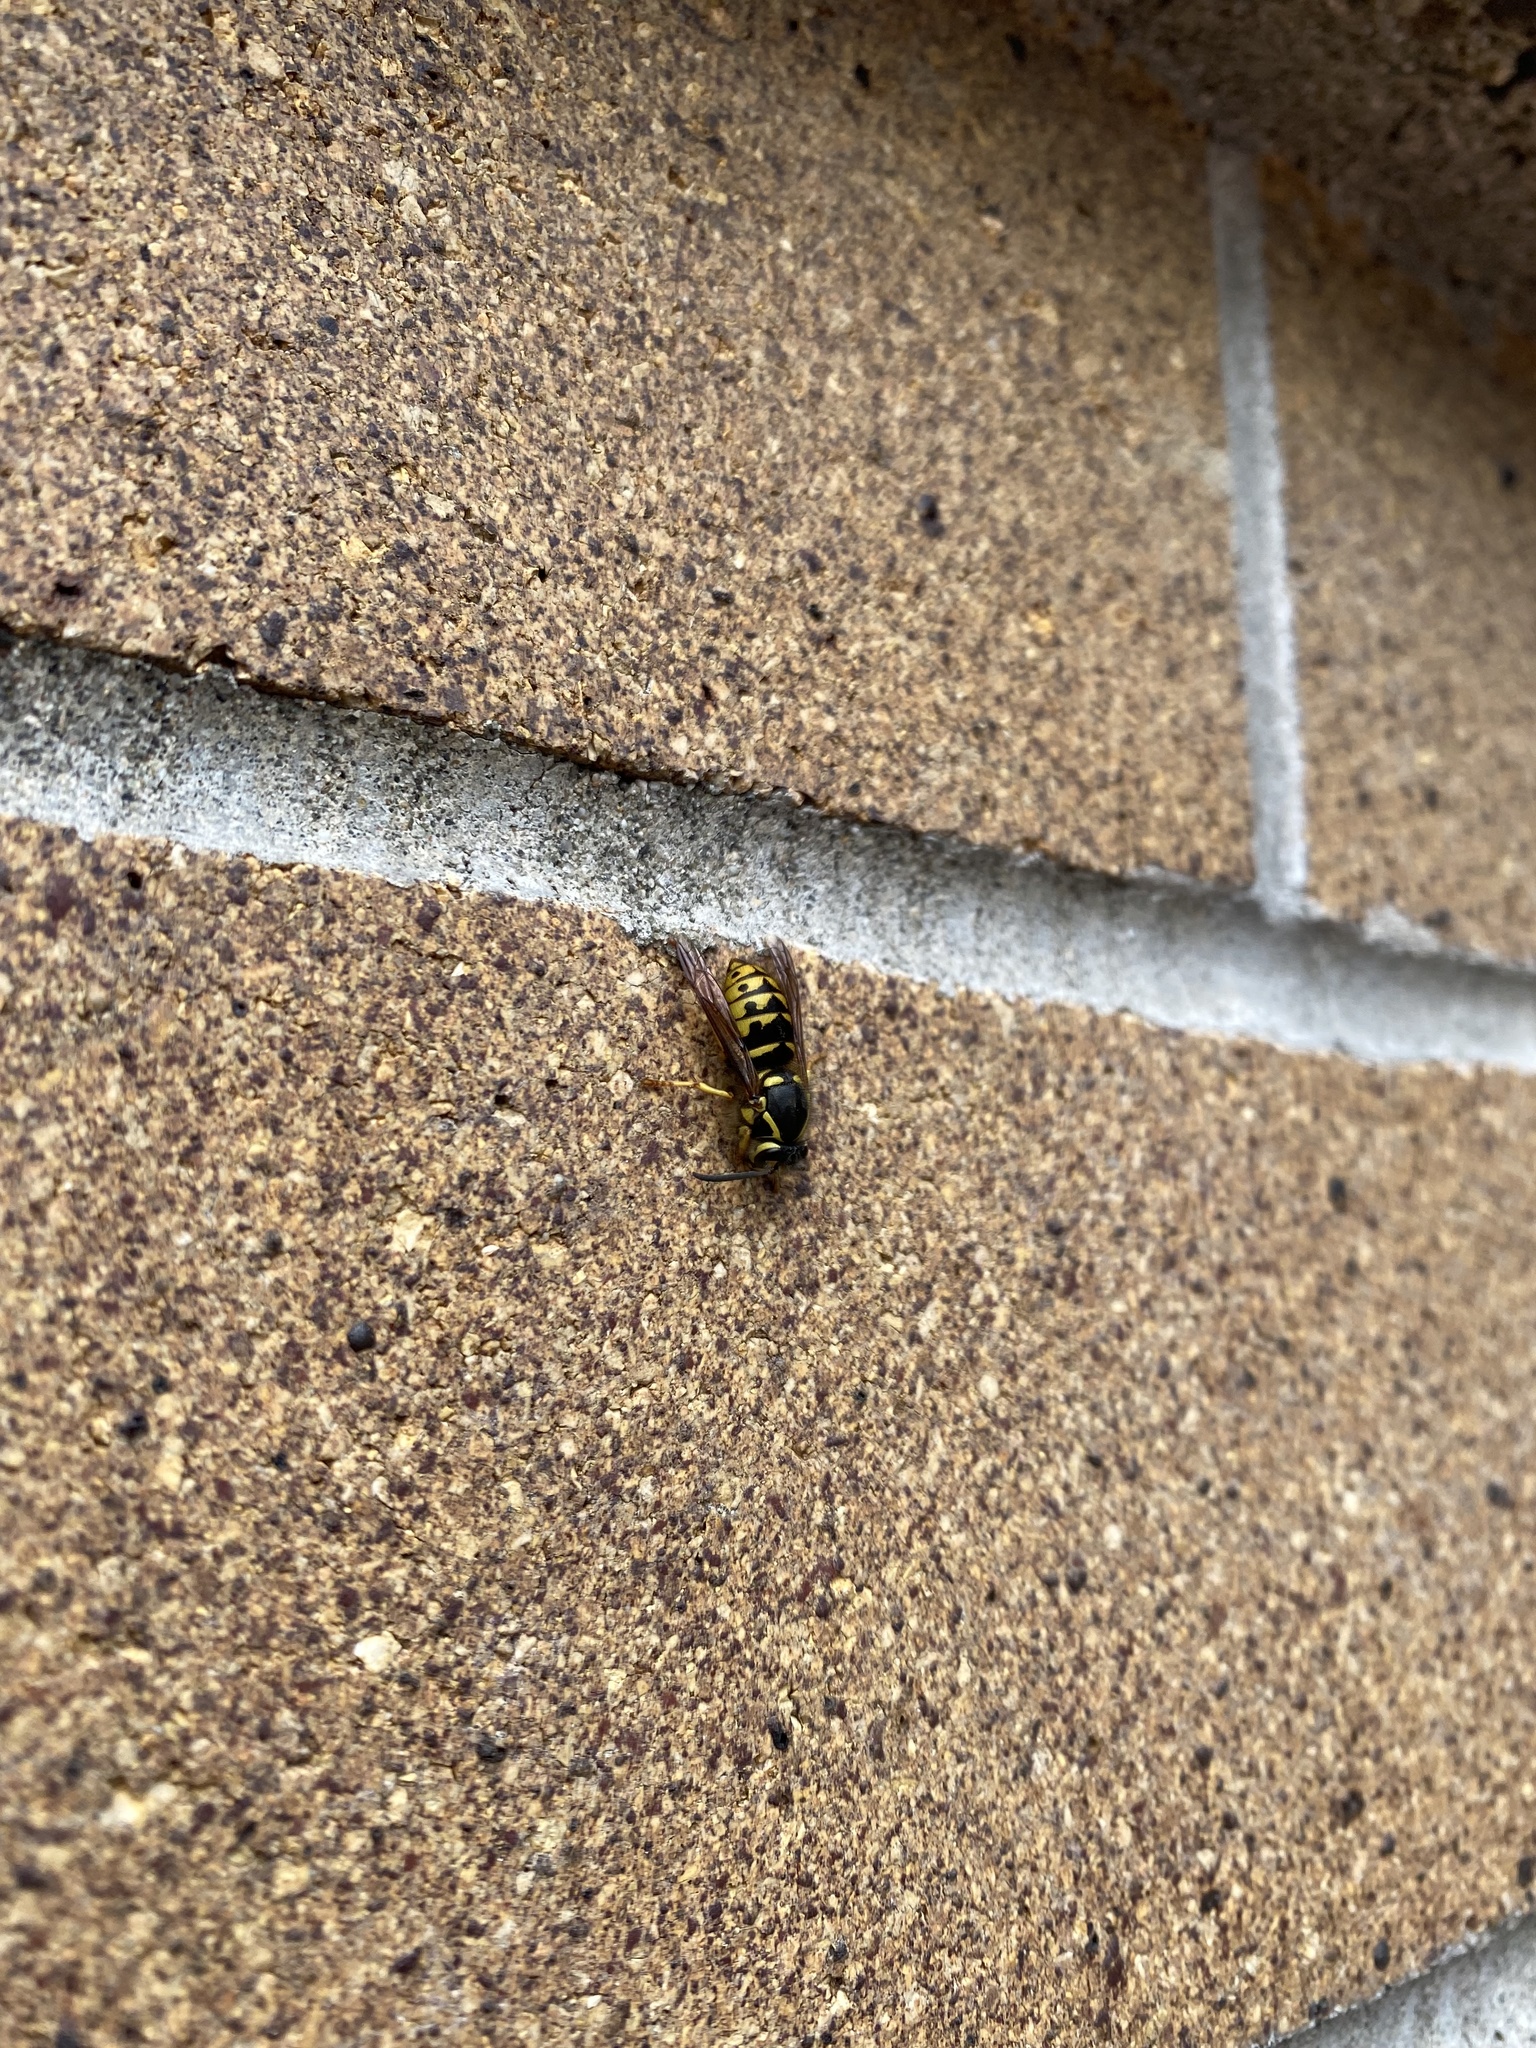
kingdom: Animalia
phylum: Arthropoda
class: Insecta
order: Hymenoptera
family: Vespidae
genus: Dolichovespula
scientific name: Dolichovespula arenaria
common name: Aerial yellowjacket
